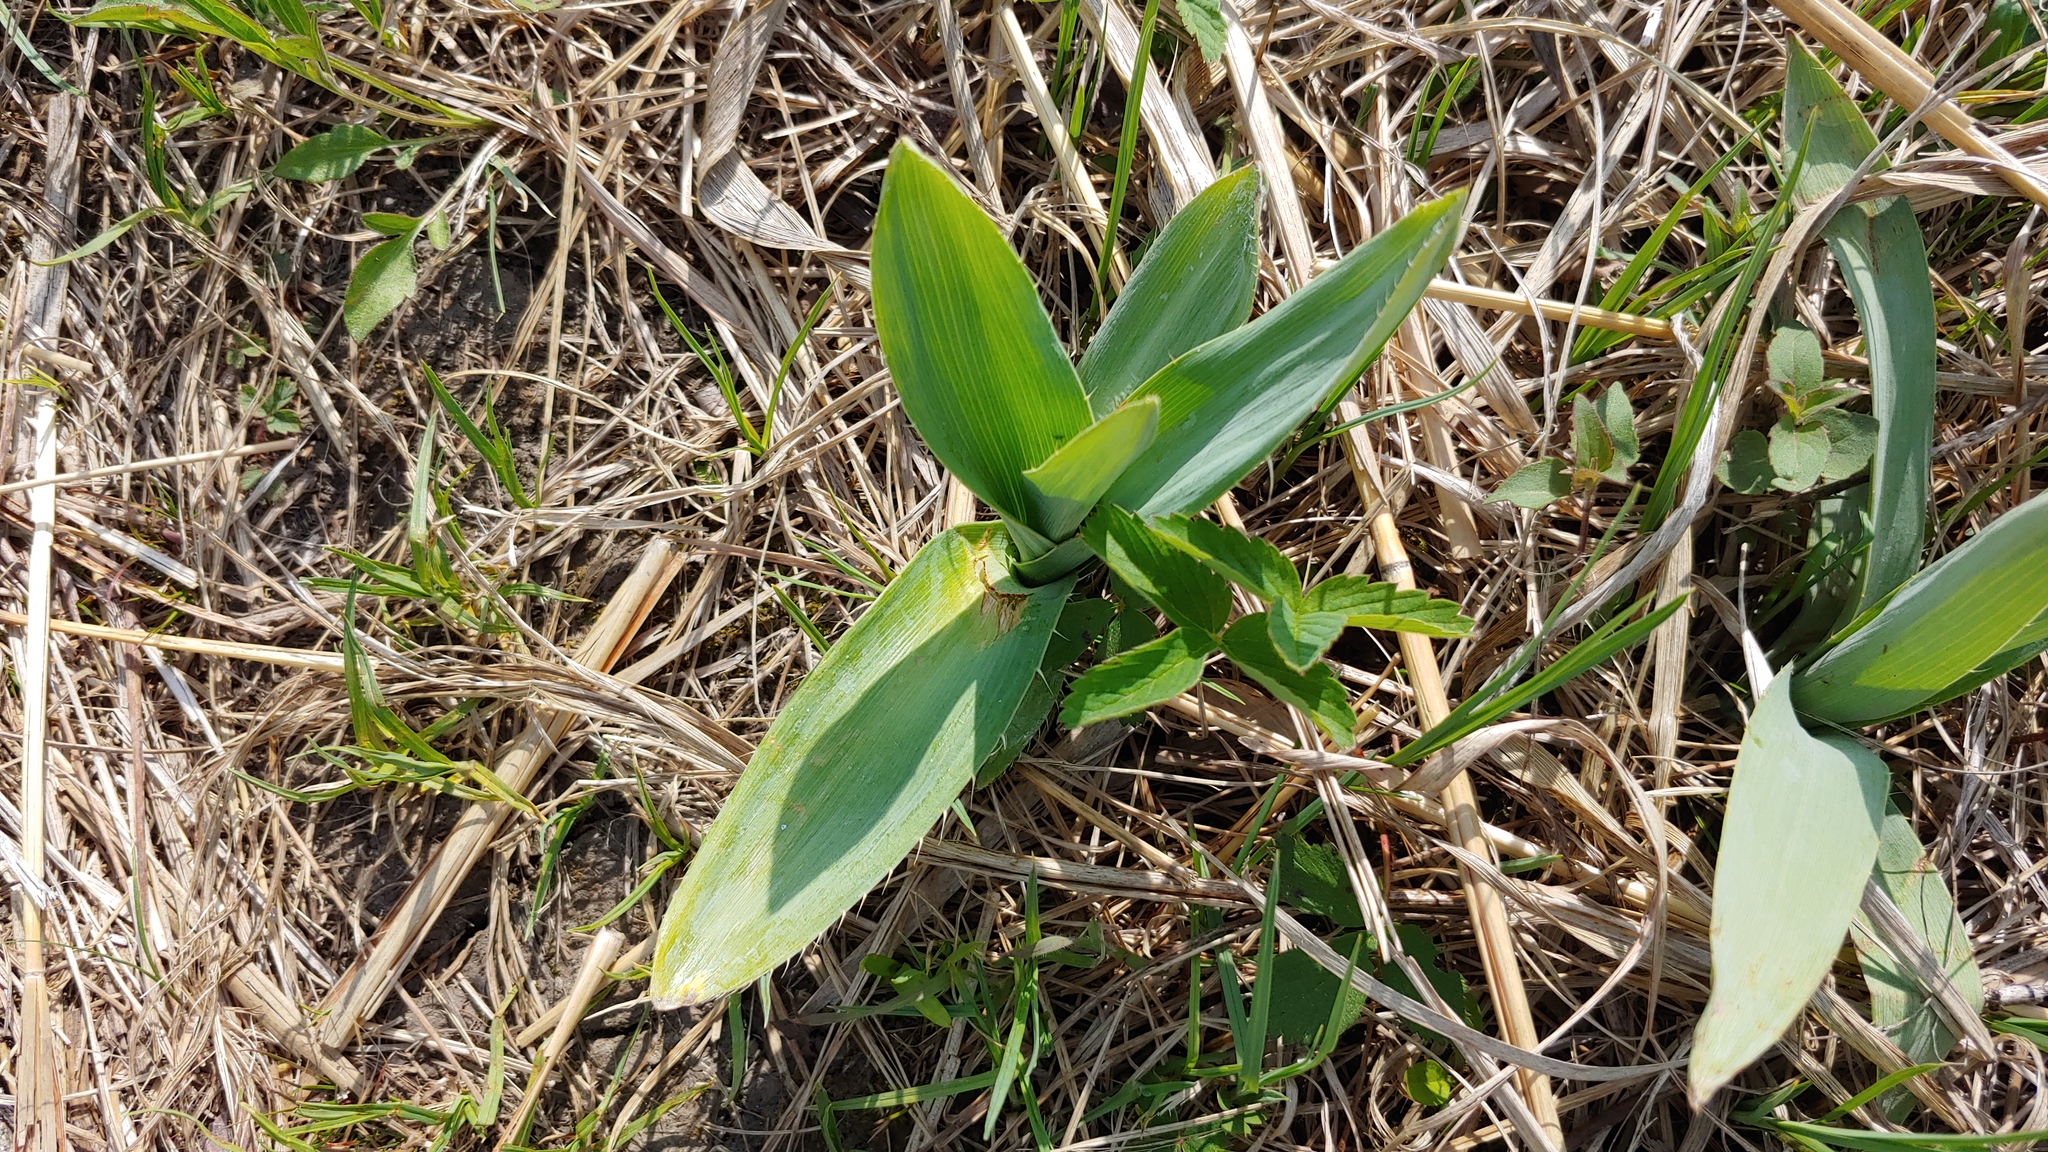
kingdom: Plantae
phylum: Tracheophyta
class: Magnoliopsida
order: Apiales
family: Apiaceae
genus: Eryngium
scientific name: Eryngium yuccifolium
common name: Button eryngo
